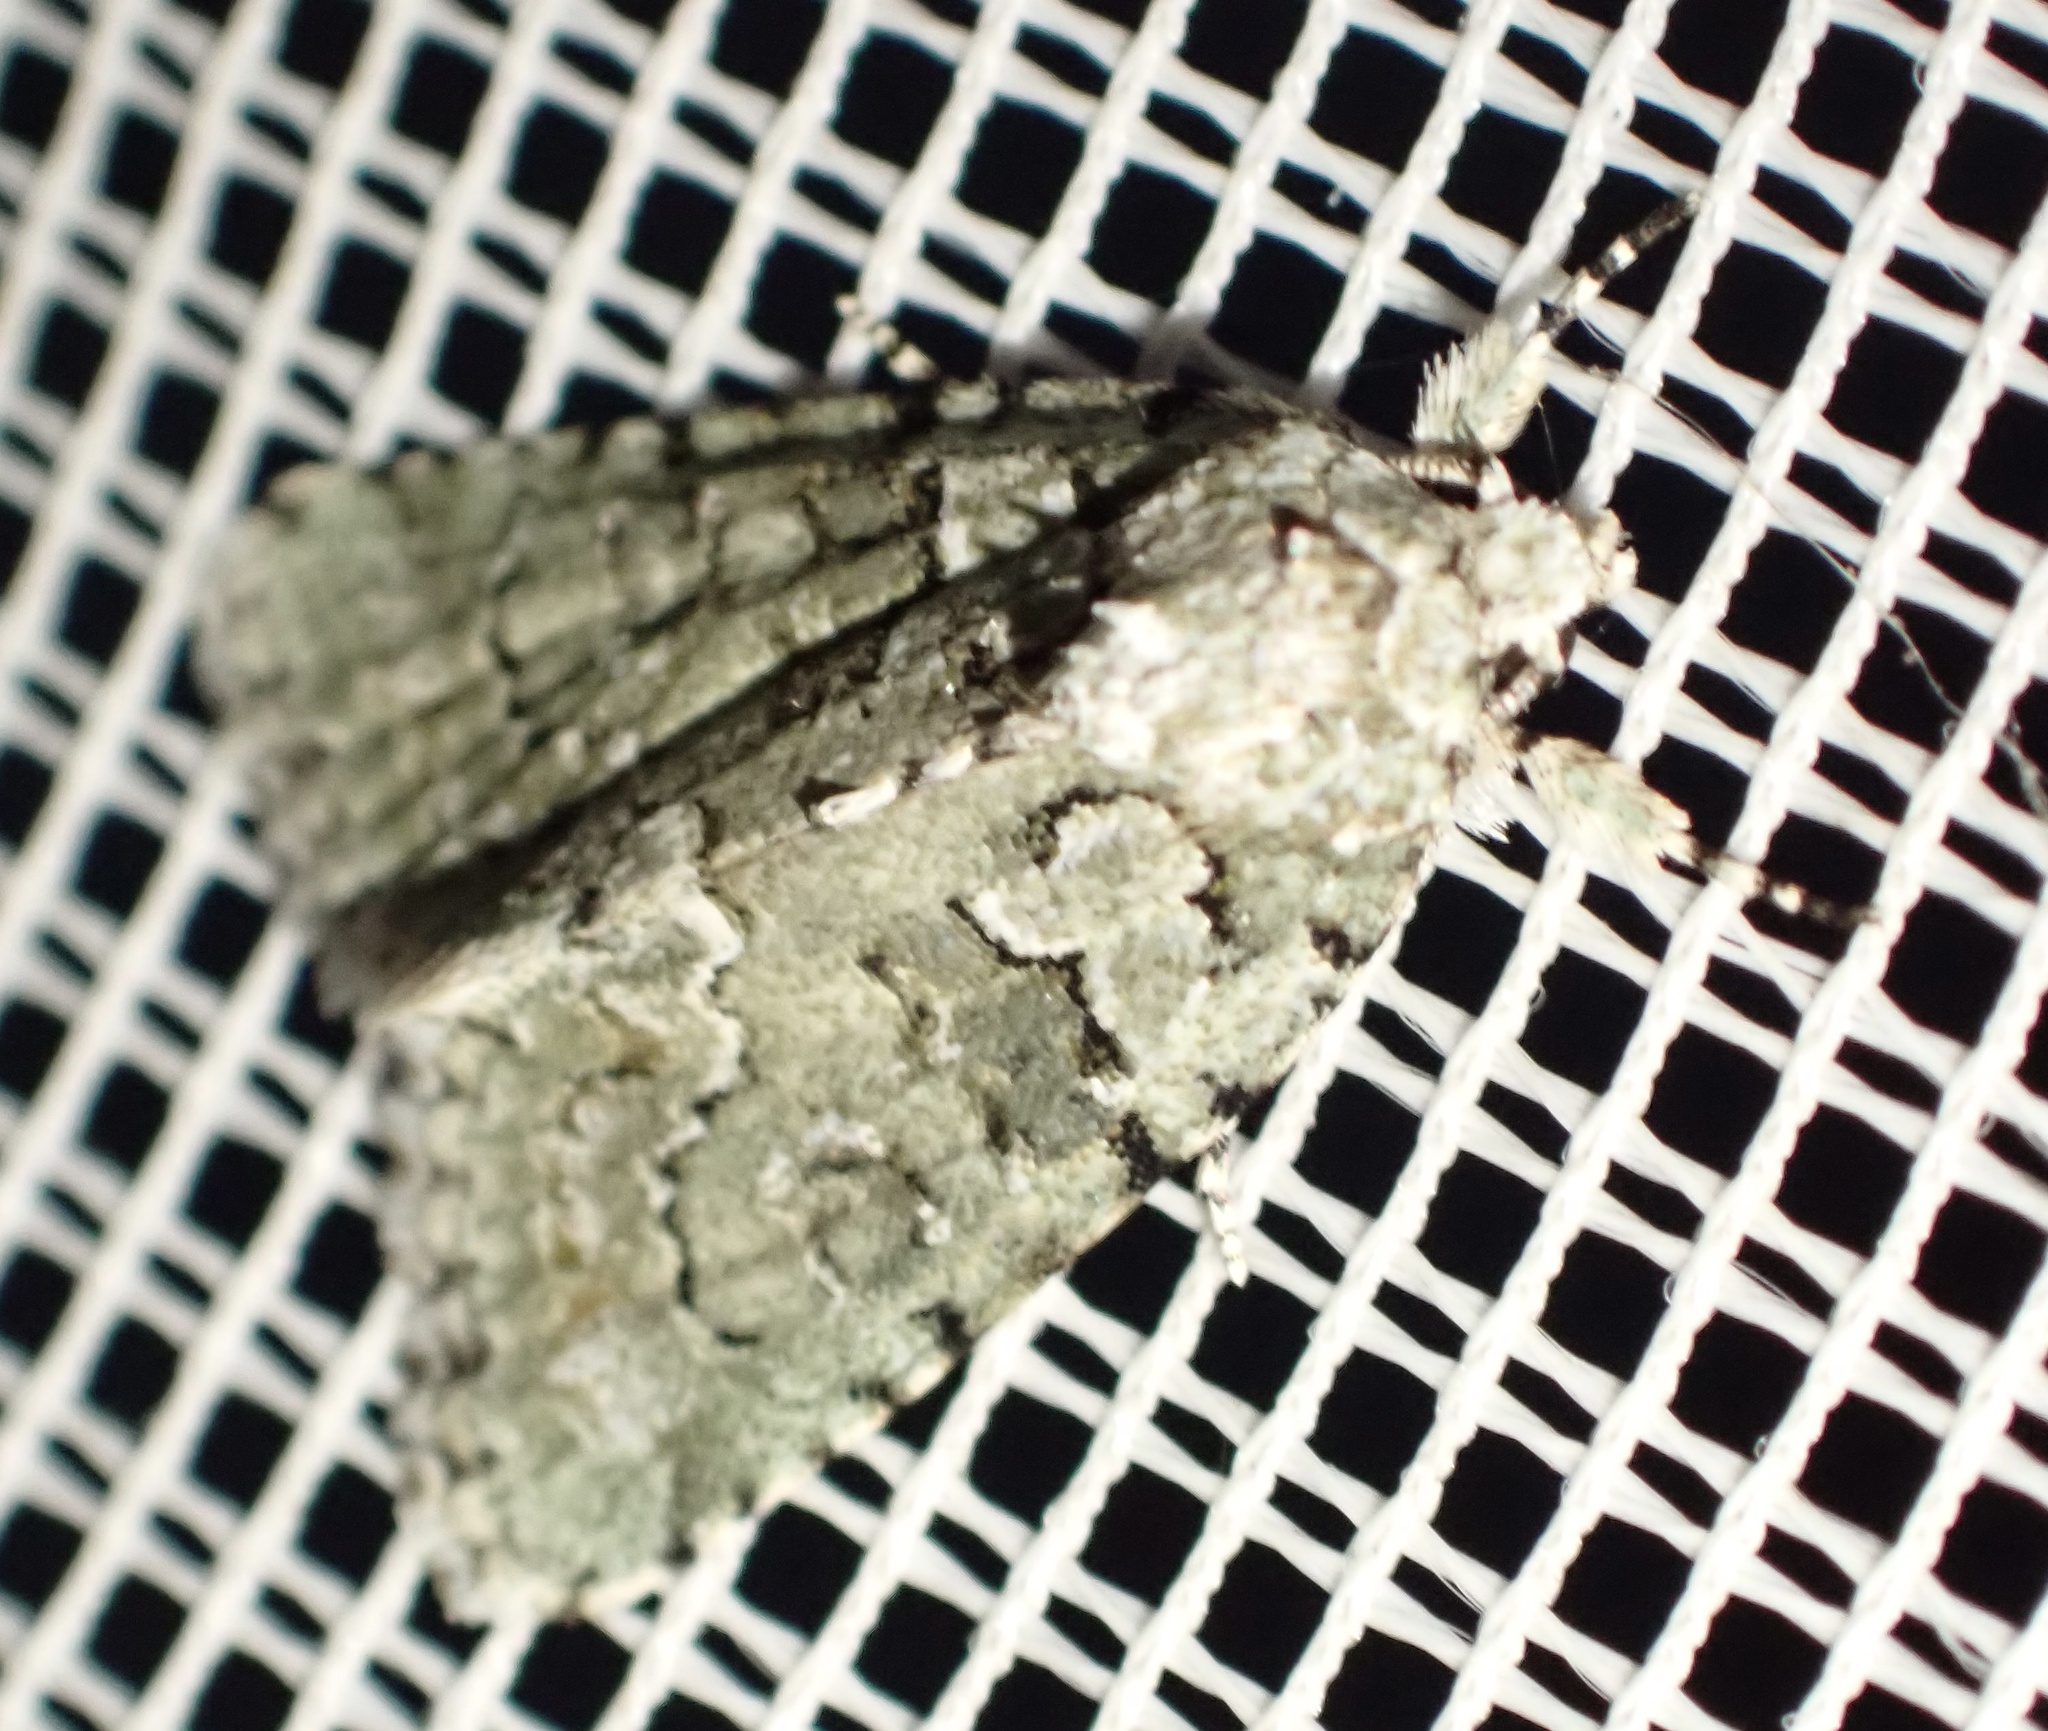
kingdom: Animalia
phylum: Arthropoda
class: Insecta
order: Lepidoptera
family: Noctuidae
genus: Nyctobrya
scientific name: Nyctobrya muralis
